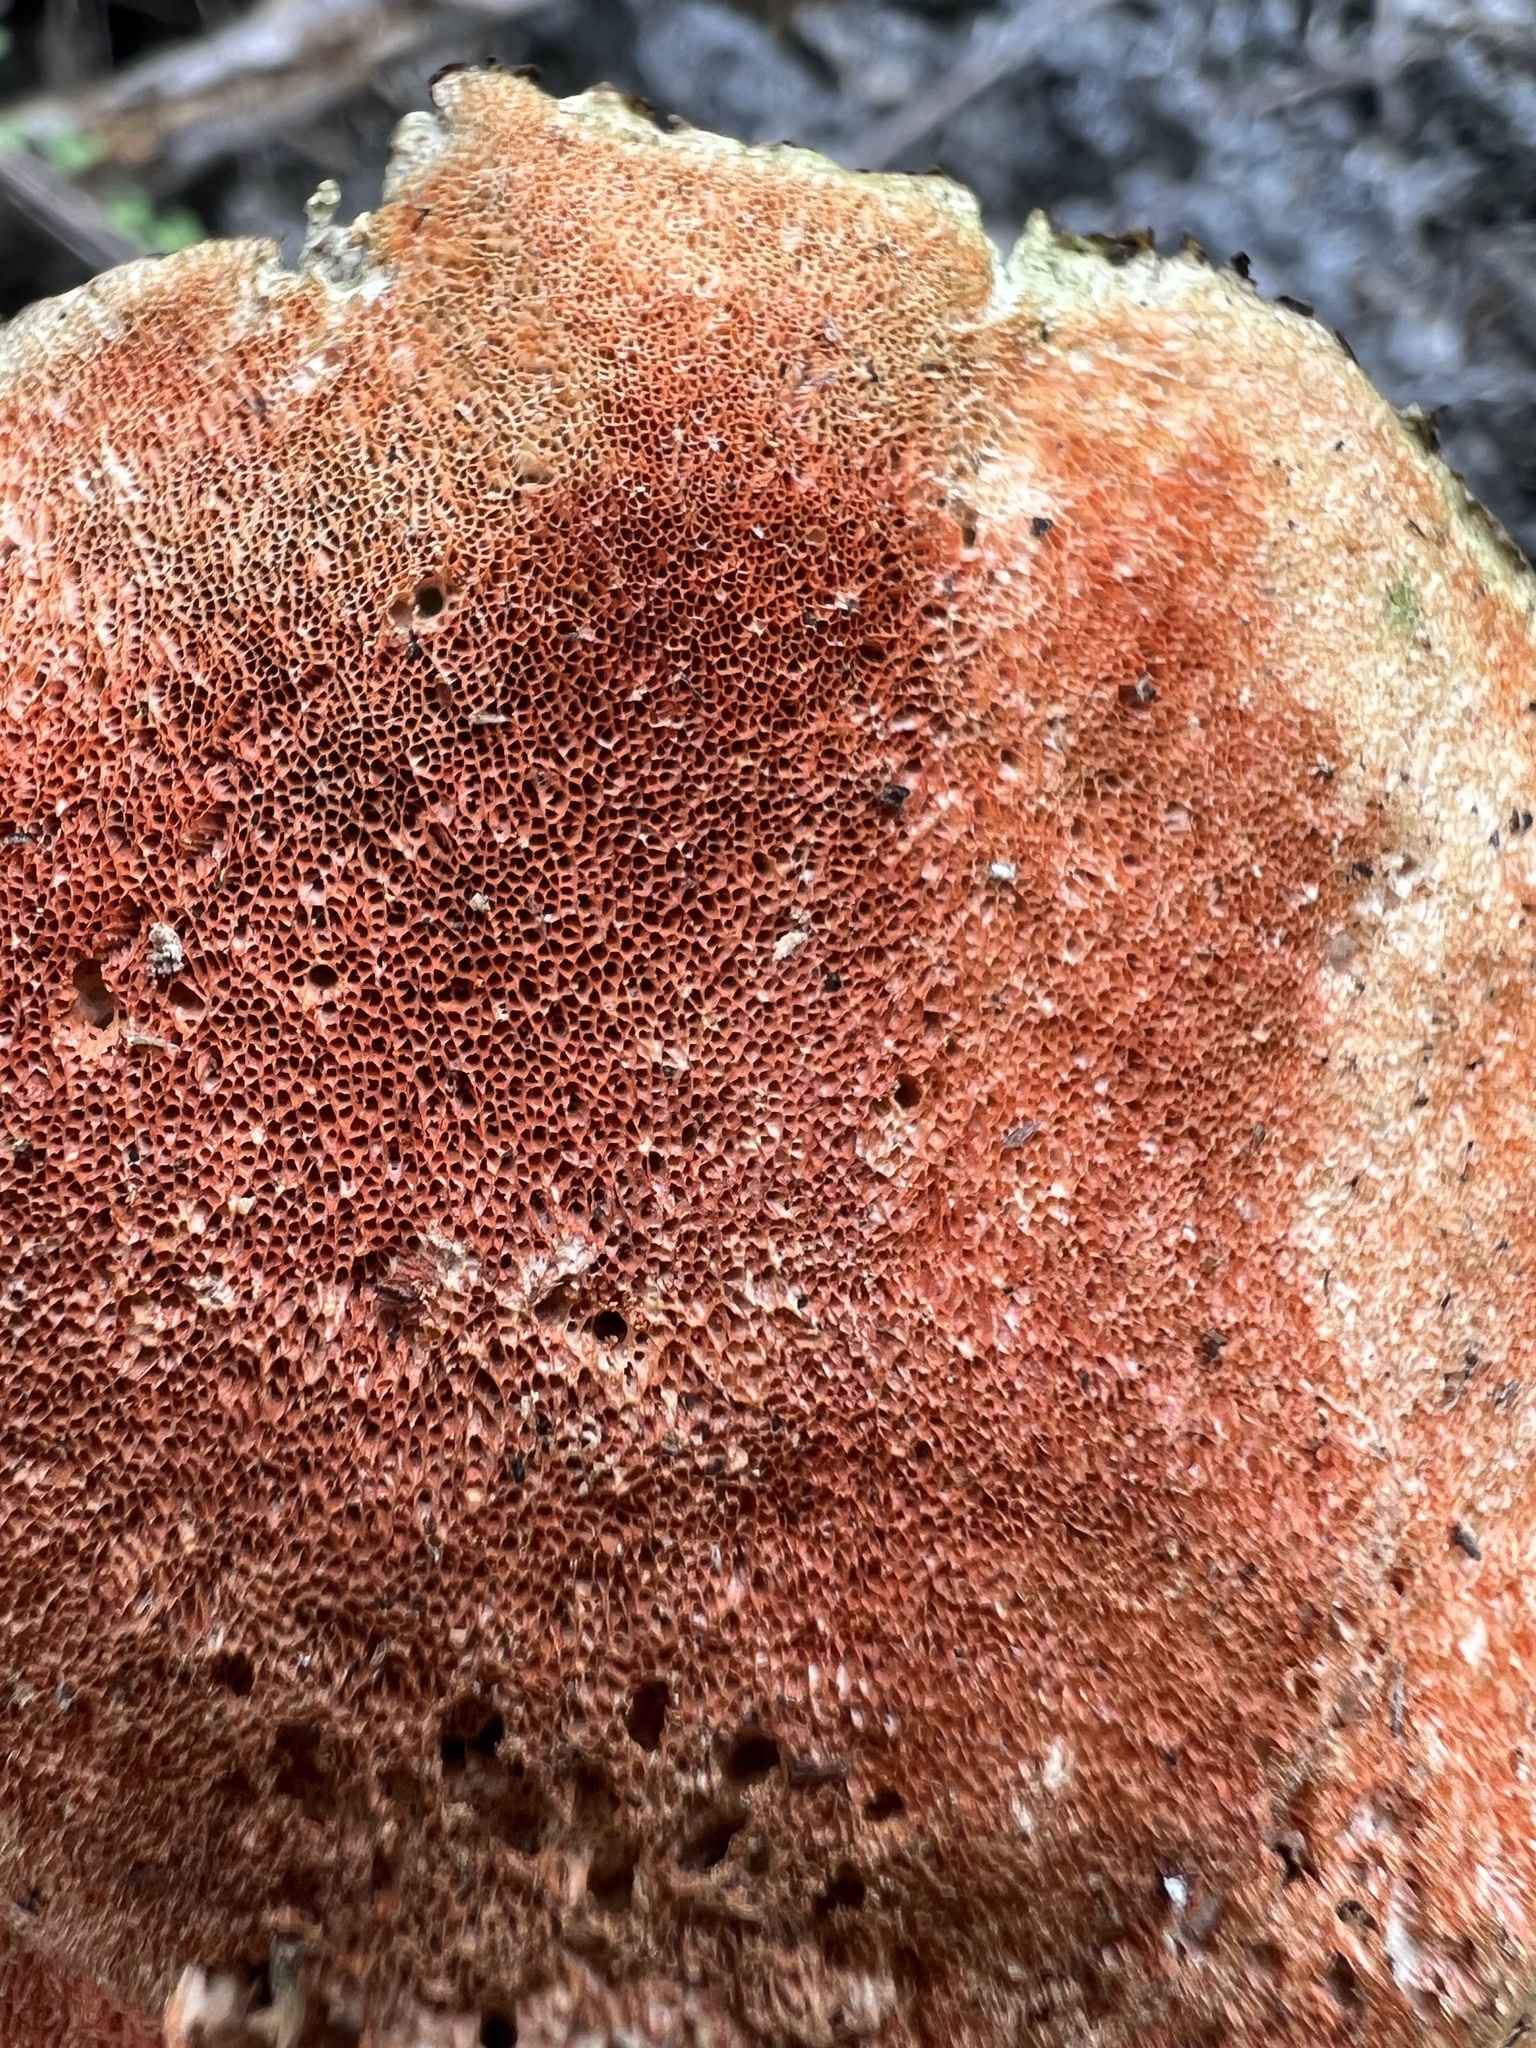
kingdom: Fungi
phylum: Basidiomycota
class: Agaricomycetes
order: Polyporales
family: Polyporaceae
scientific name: Polyporaceae
